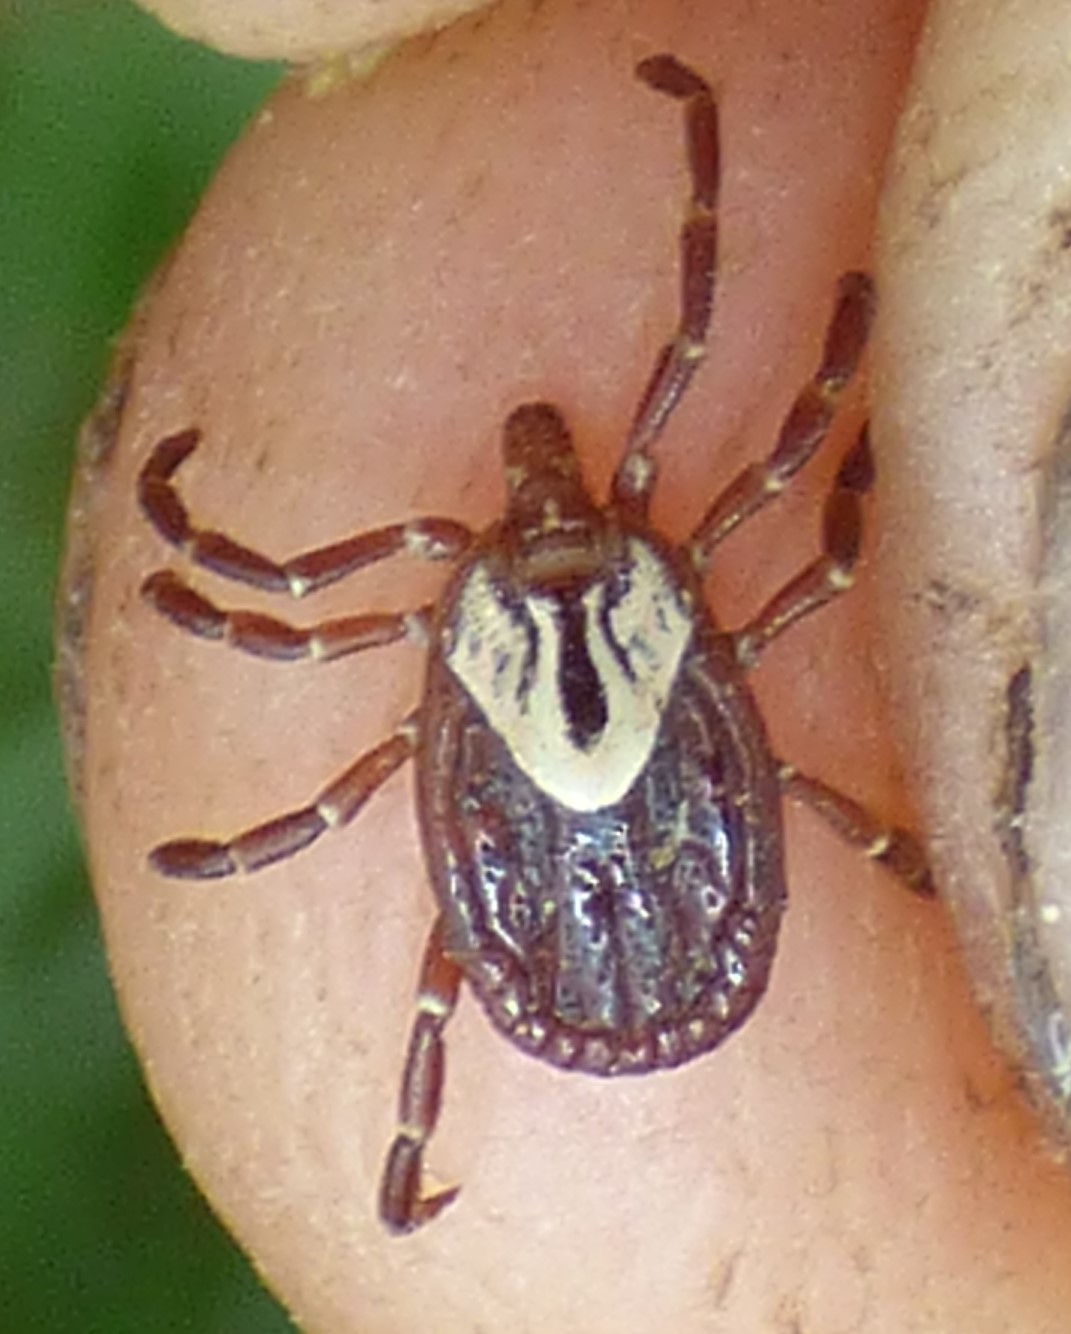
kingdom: Animalia
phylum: Arthropoda
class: Arachnida
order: Ixodida
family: Ixodidae
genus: Amblyomma
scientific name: Amblyomma maculatum
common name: Gulf coast tick
